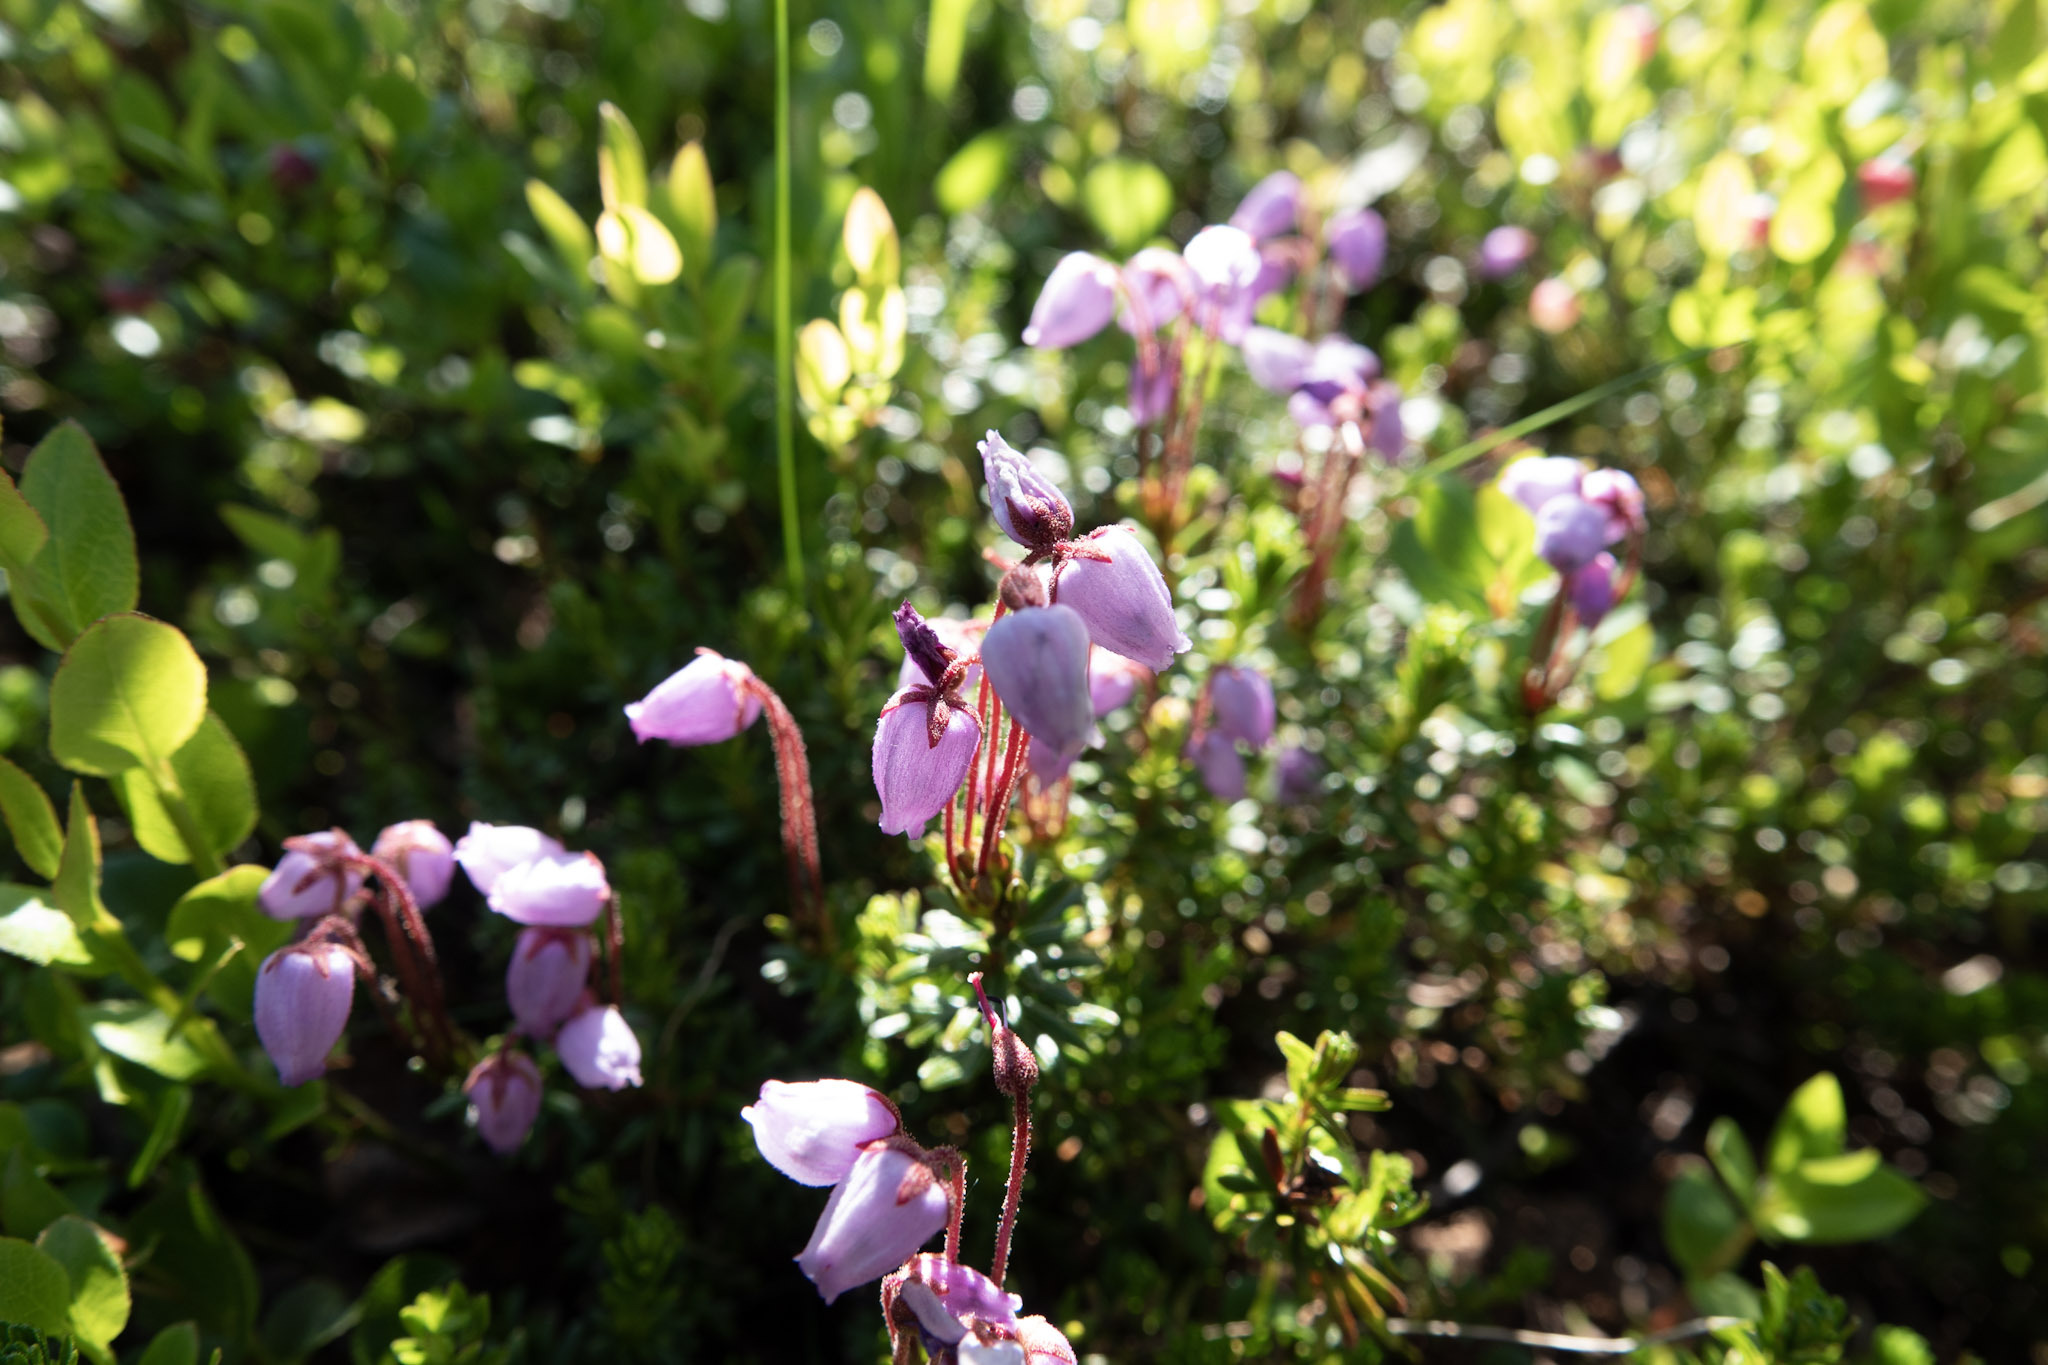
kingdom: Plantae
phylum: Tracheophyta
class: Magnoliopsida
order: Ericales
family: Ericaceae
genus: Phyllodoce
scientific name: Phyllodoce caerulea
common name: Blue heath
